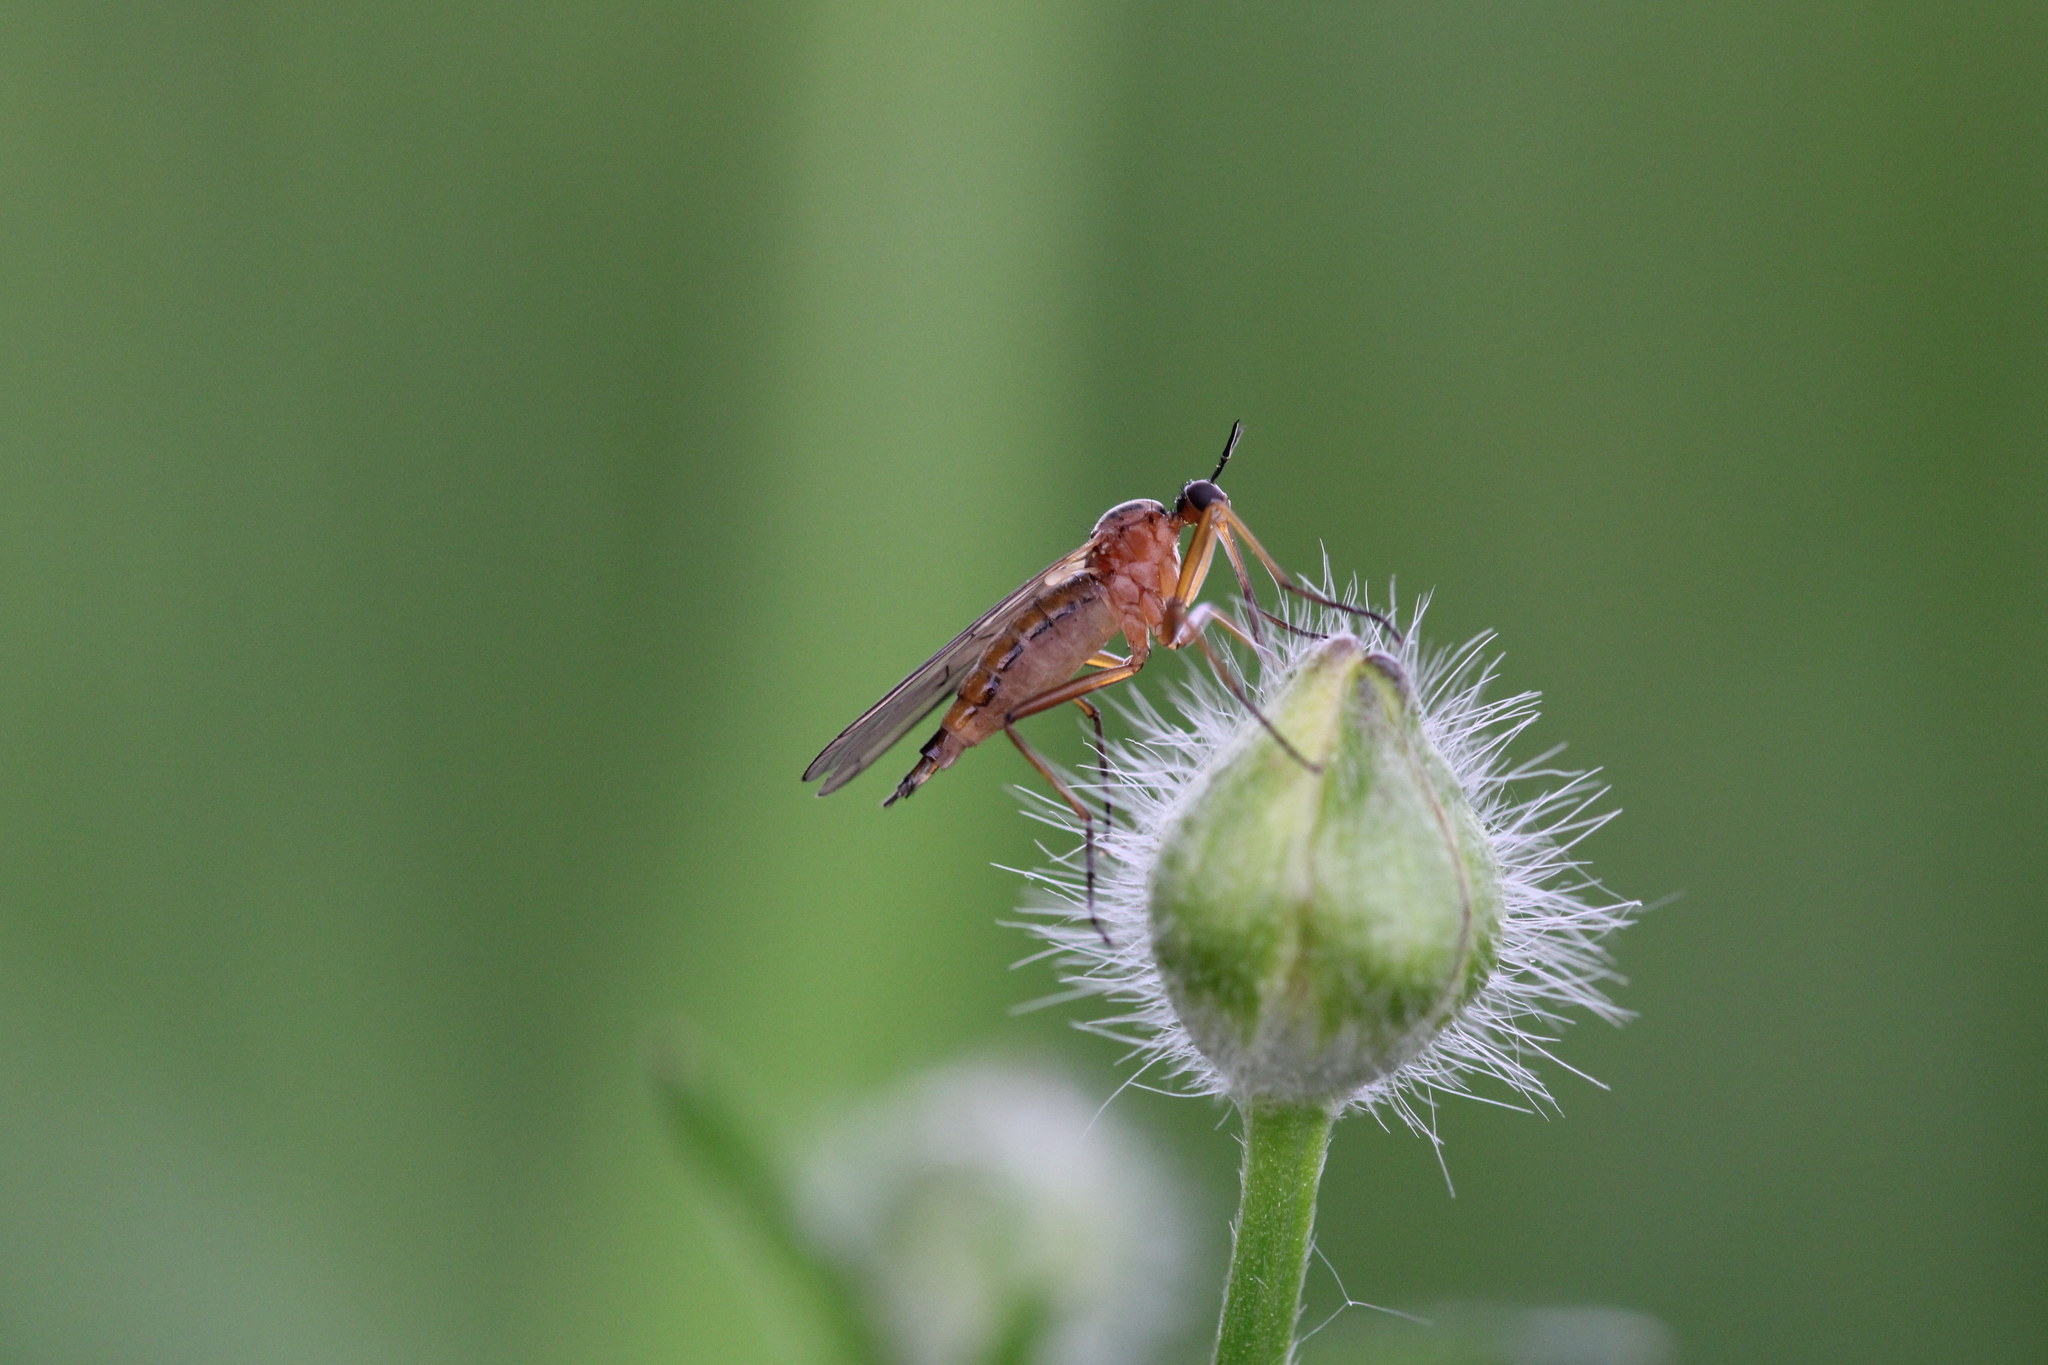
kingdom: Animalia
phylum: Arthropoda
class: Insecta
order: Diptera
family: Empididae
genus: Empis
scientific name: Empis trigramma
